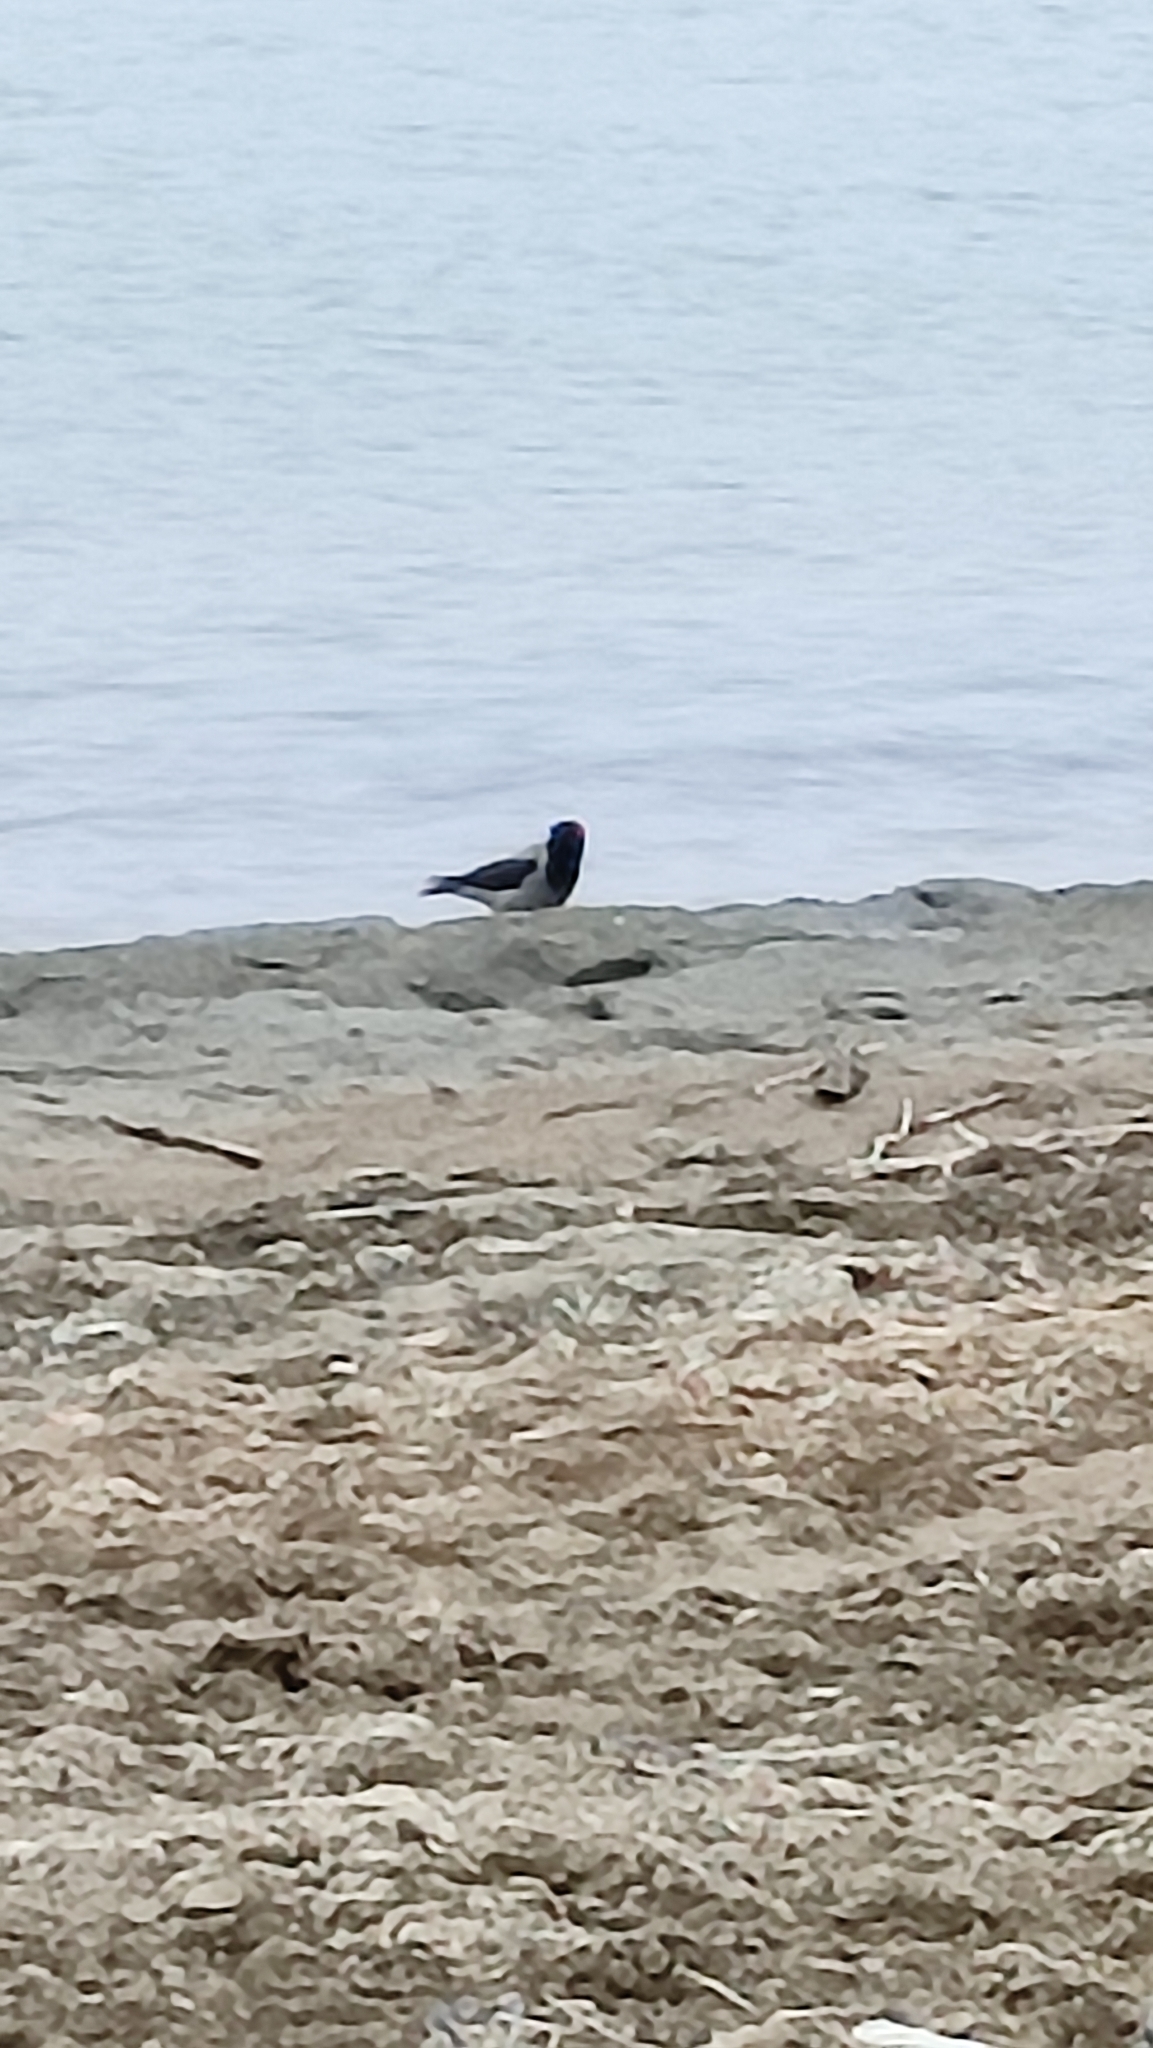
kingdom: Animalia
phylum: Chordata
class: Aves
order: Passeriformes
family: Corvidae
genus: Corvus
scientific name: Corvus cornix
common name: Hooded crow
